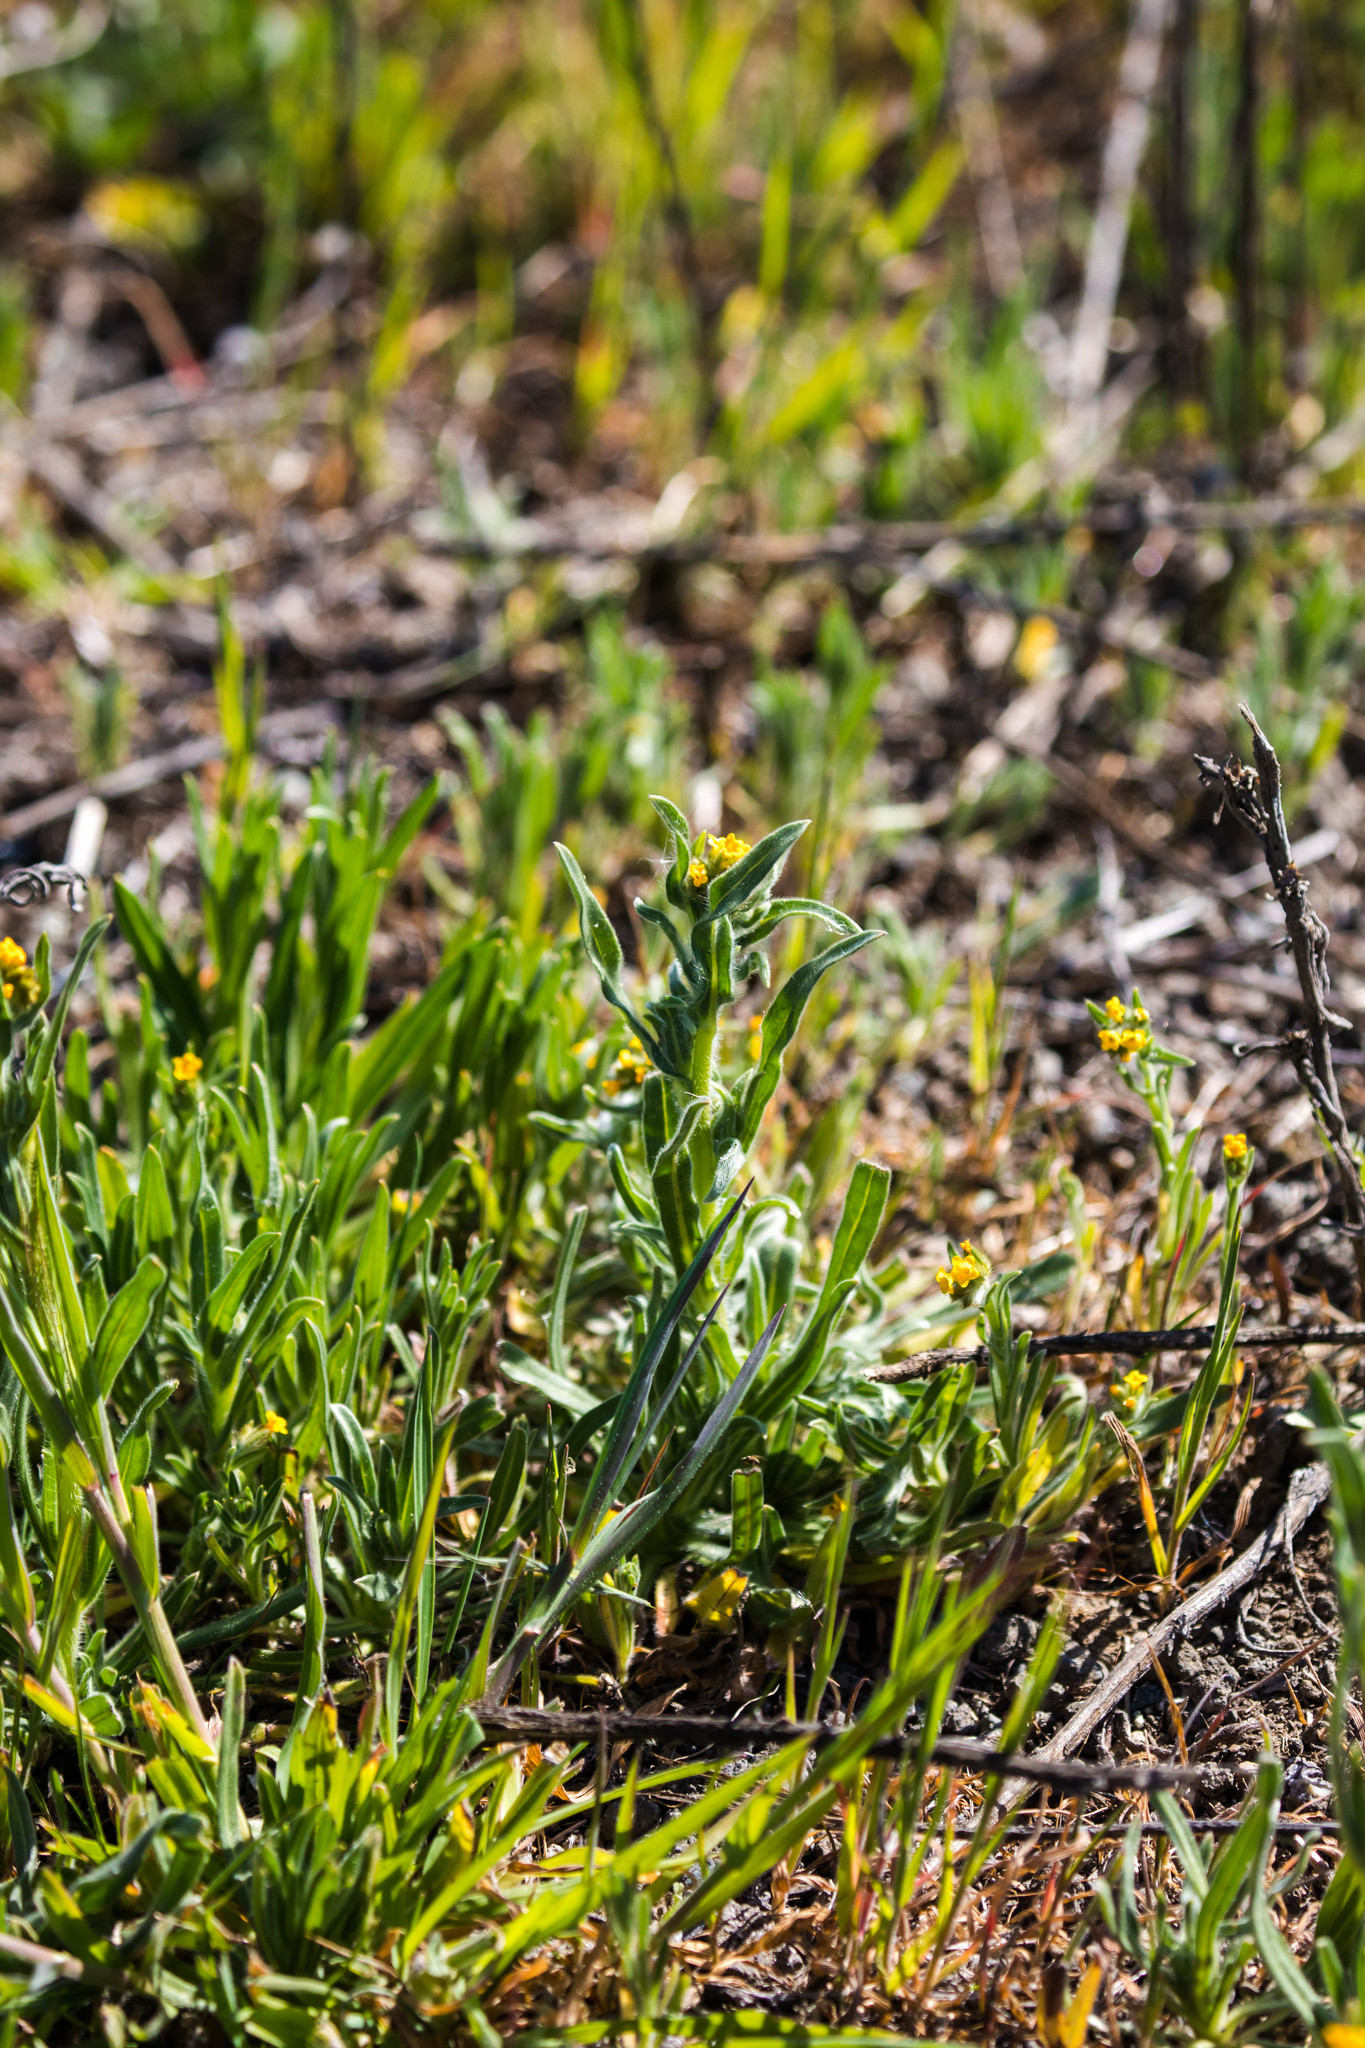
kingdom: Plantae
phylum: Tracheophyta
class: Magnoliopsida
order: Boraginales
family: Boraginaceae
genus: Amsinckia
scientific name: Amsinckia menziesii
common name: Menzies' fiddleneck
